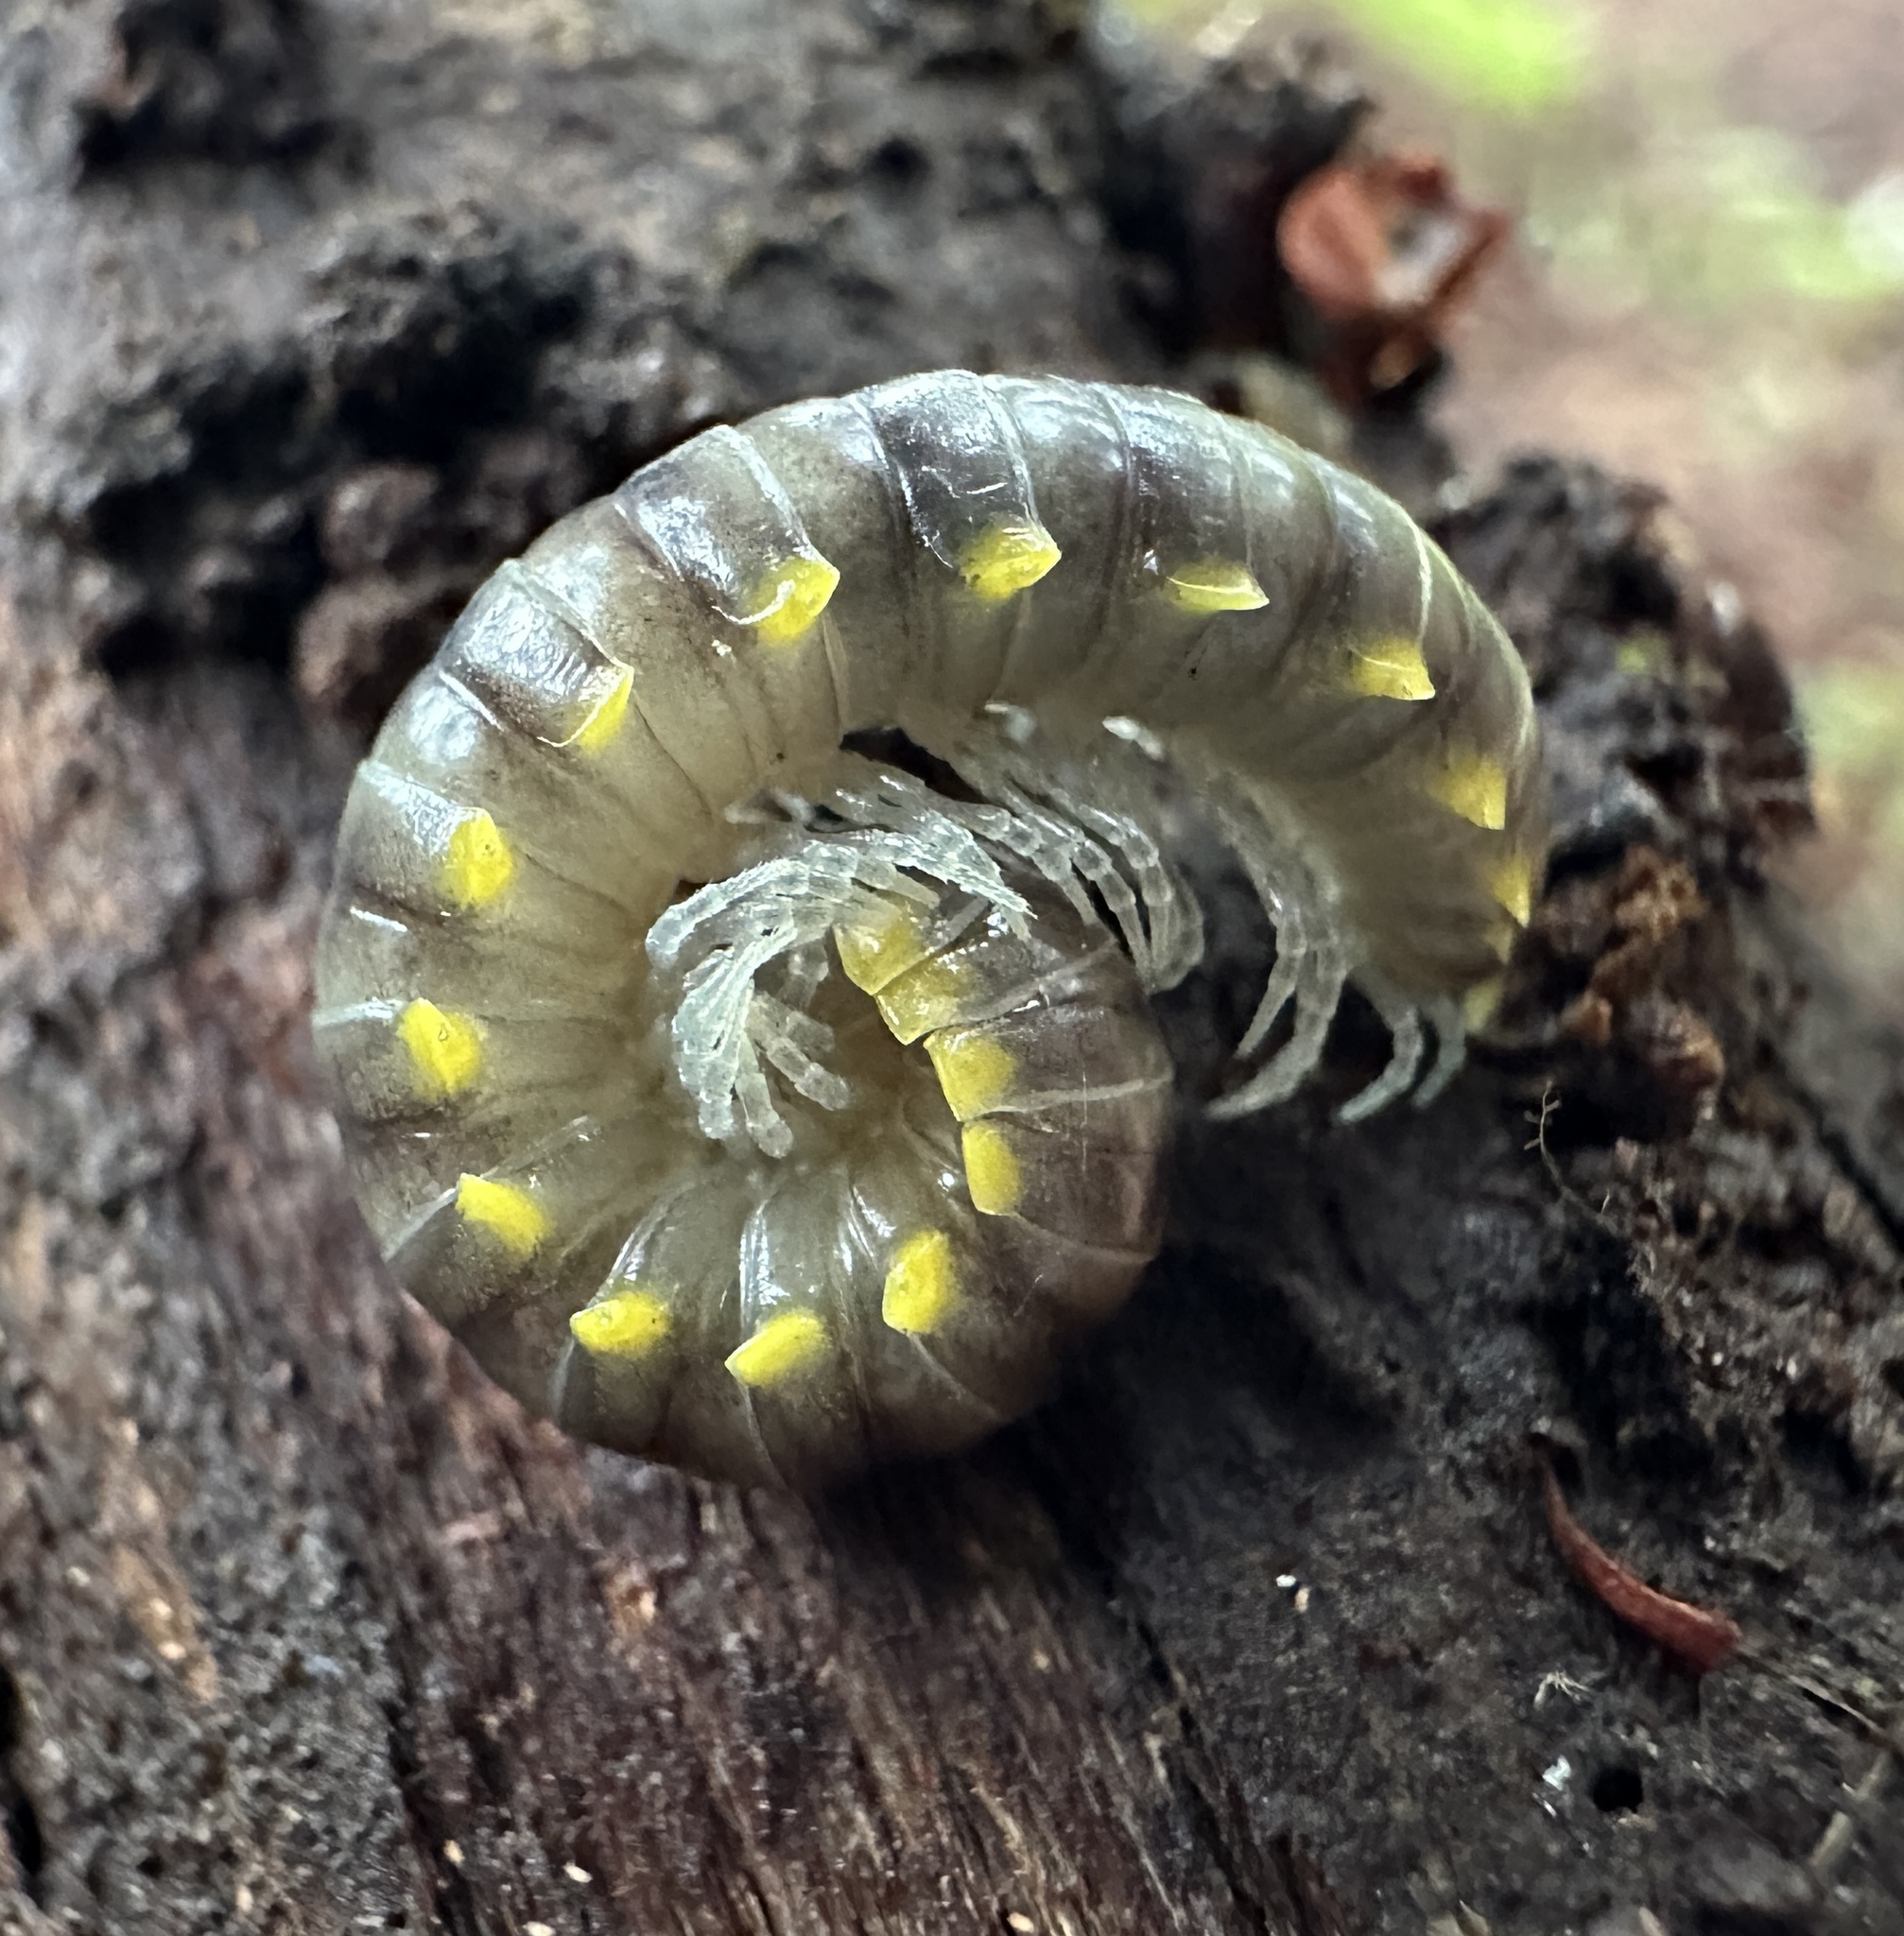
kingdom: Animalia
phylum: Arthropoda
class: Diplopoda
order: Polydesmida
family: Xystodesmidae
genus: Harpaphe
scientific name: Harpaphe haydeniana
